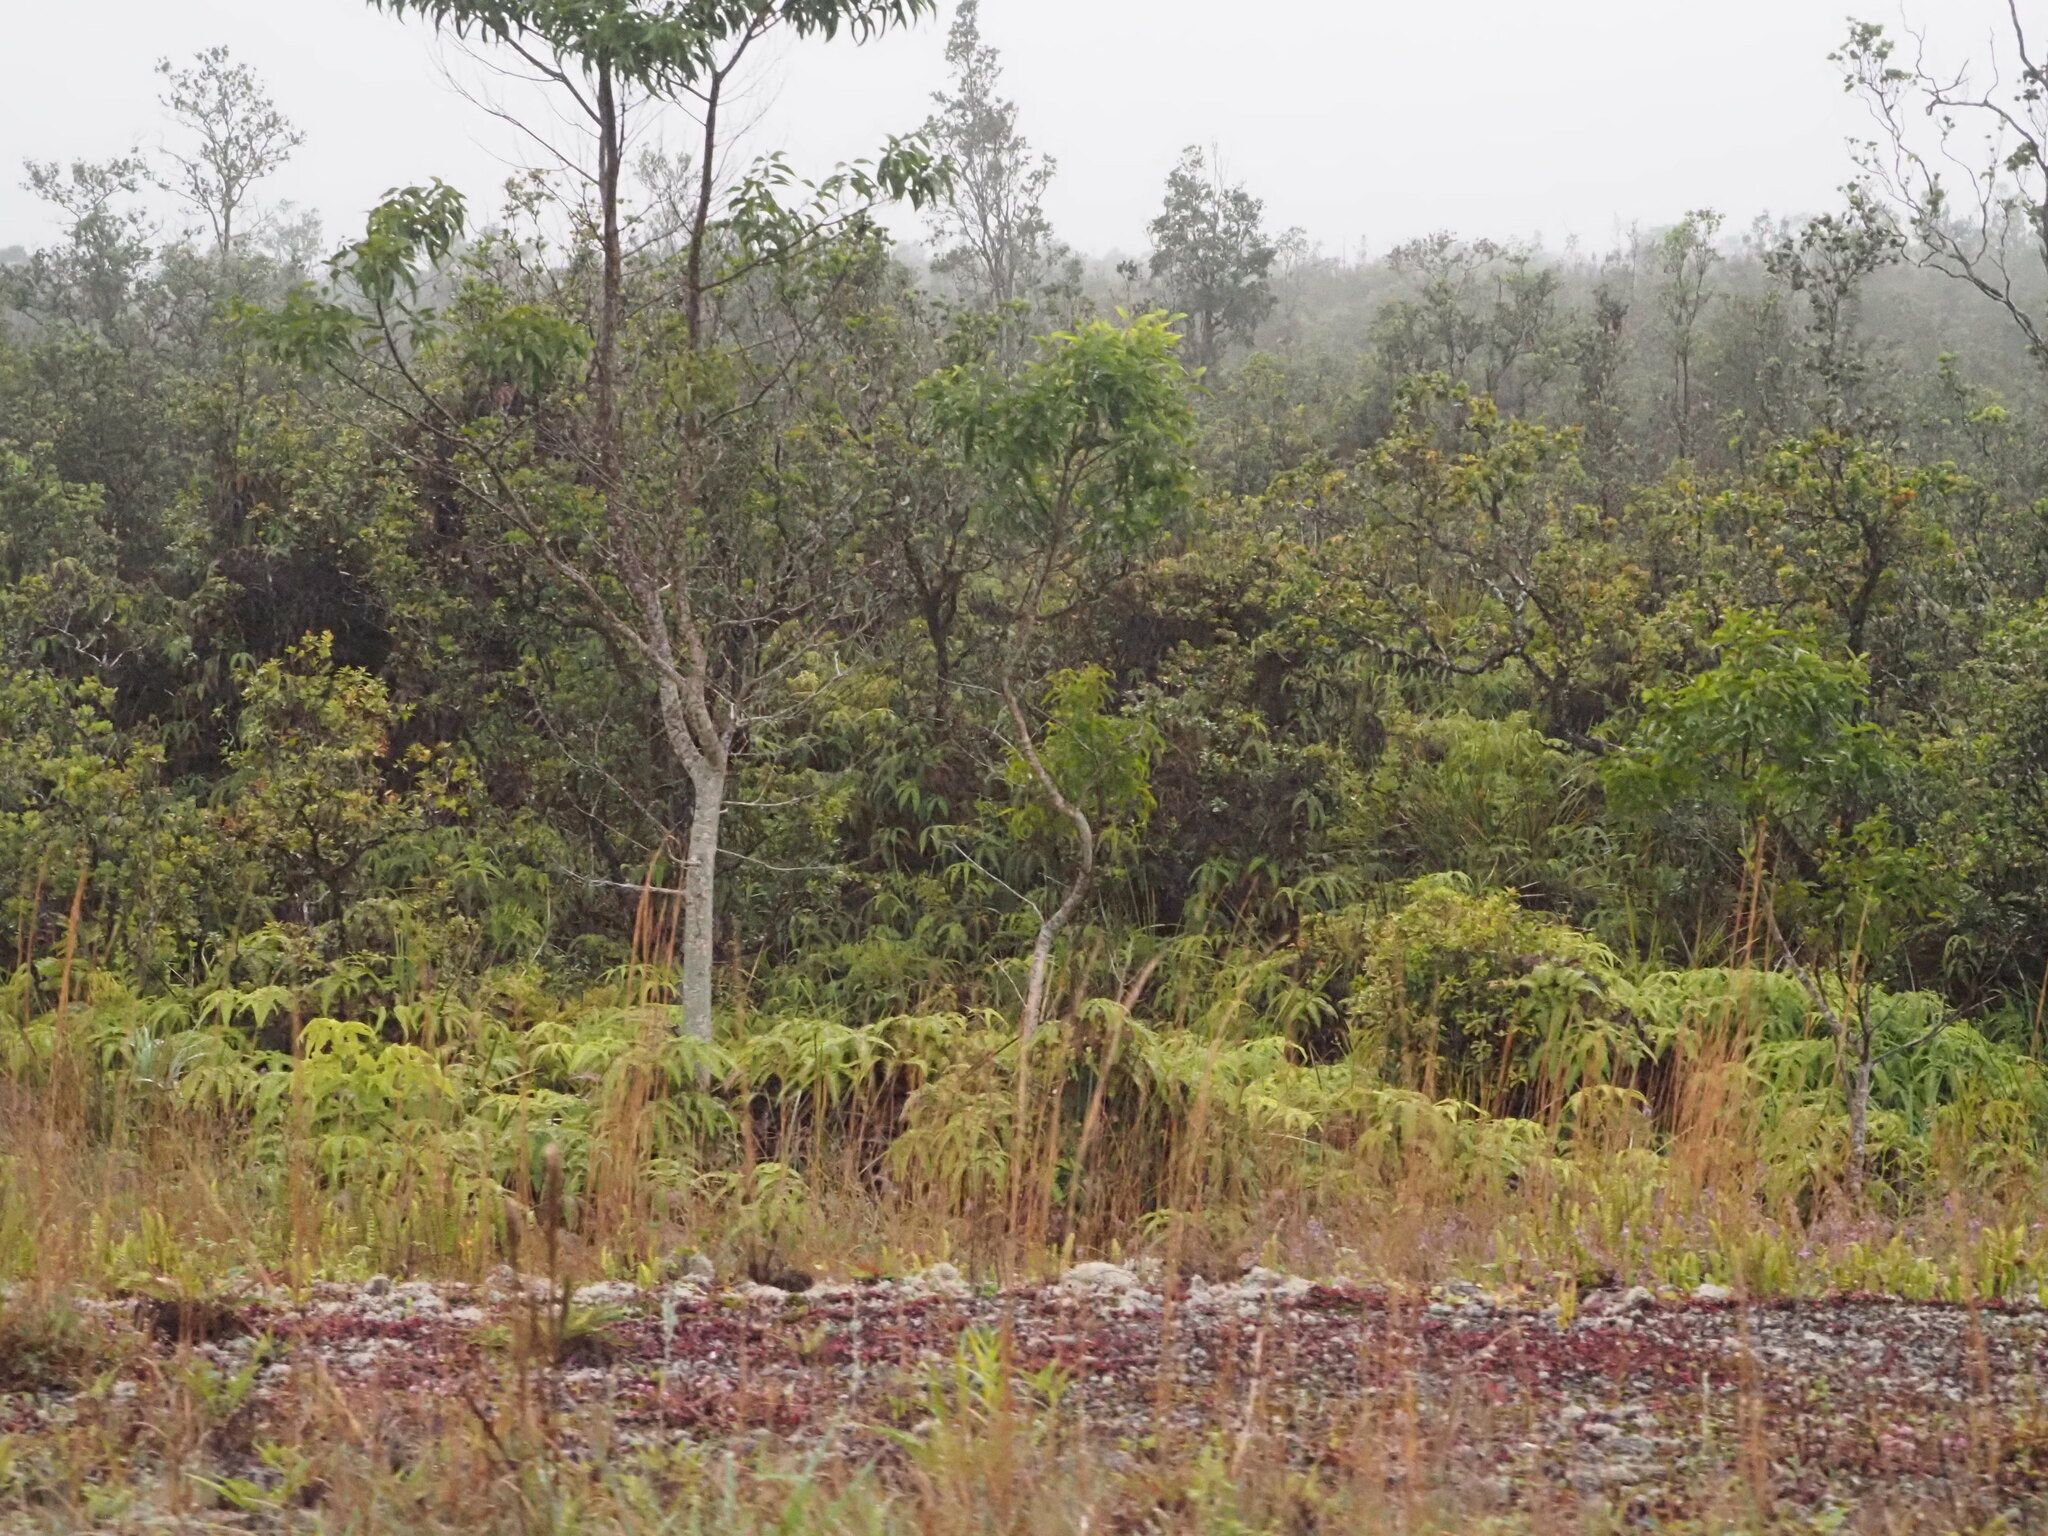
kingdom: Plantae
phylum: Tracheophyta
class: Magnoliopsida
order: Fabales
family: Fabaceae
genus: Acacia
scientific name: Acacia koa
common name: Gray koa
